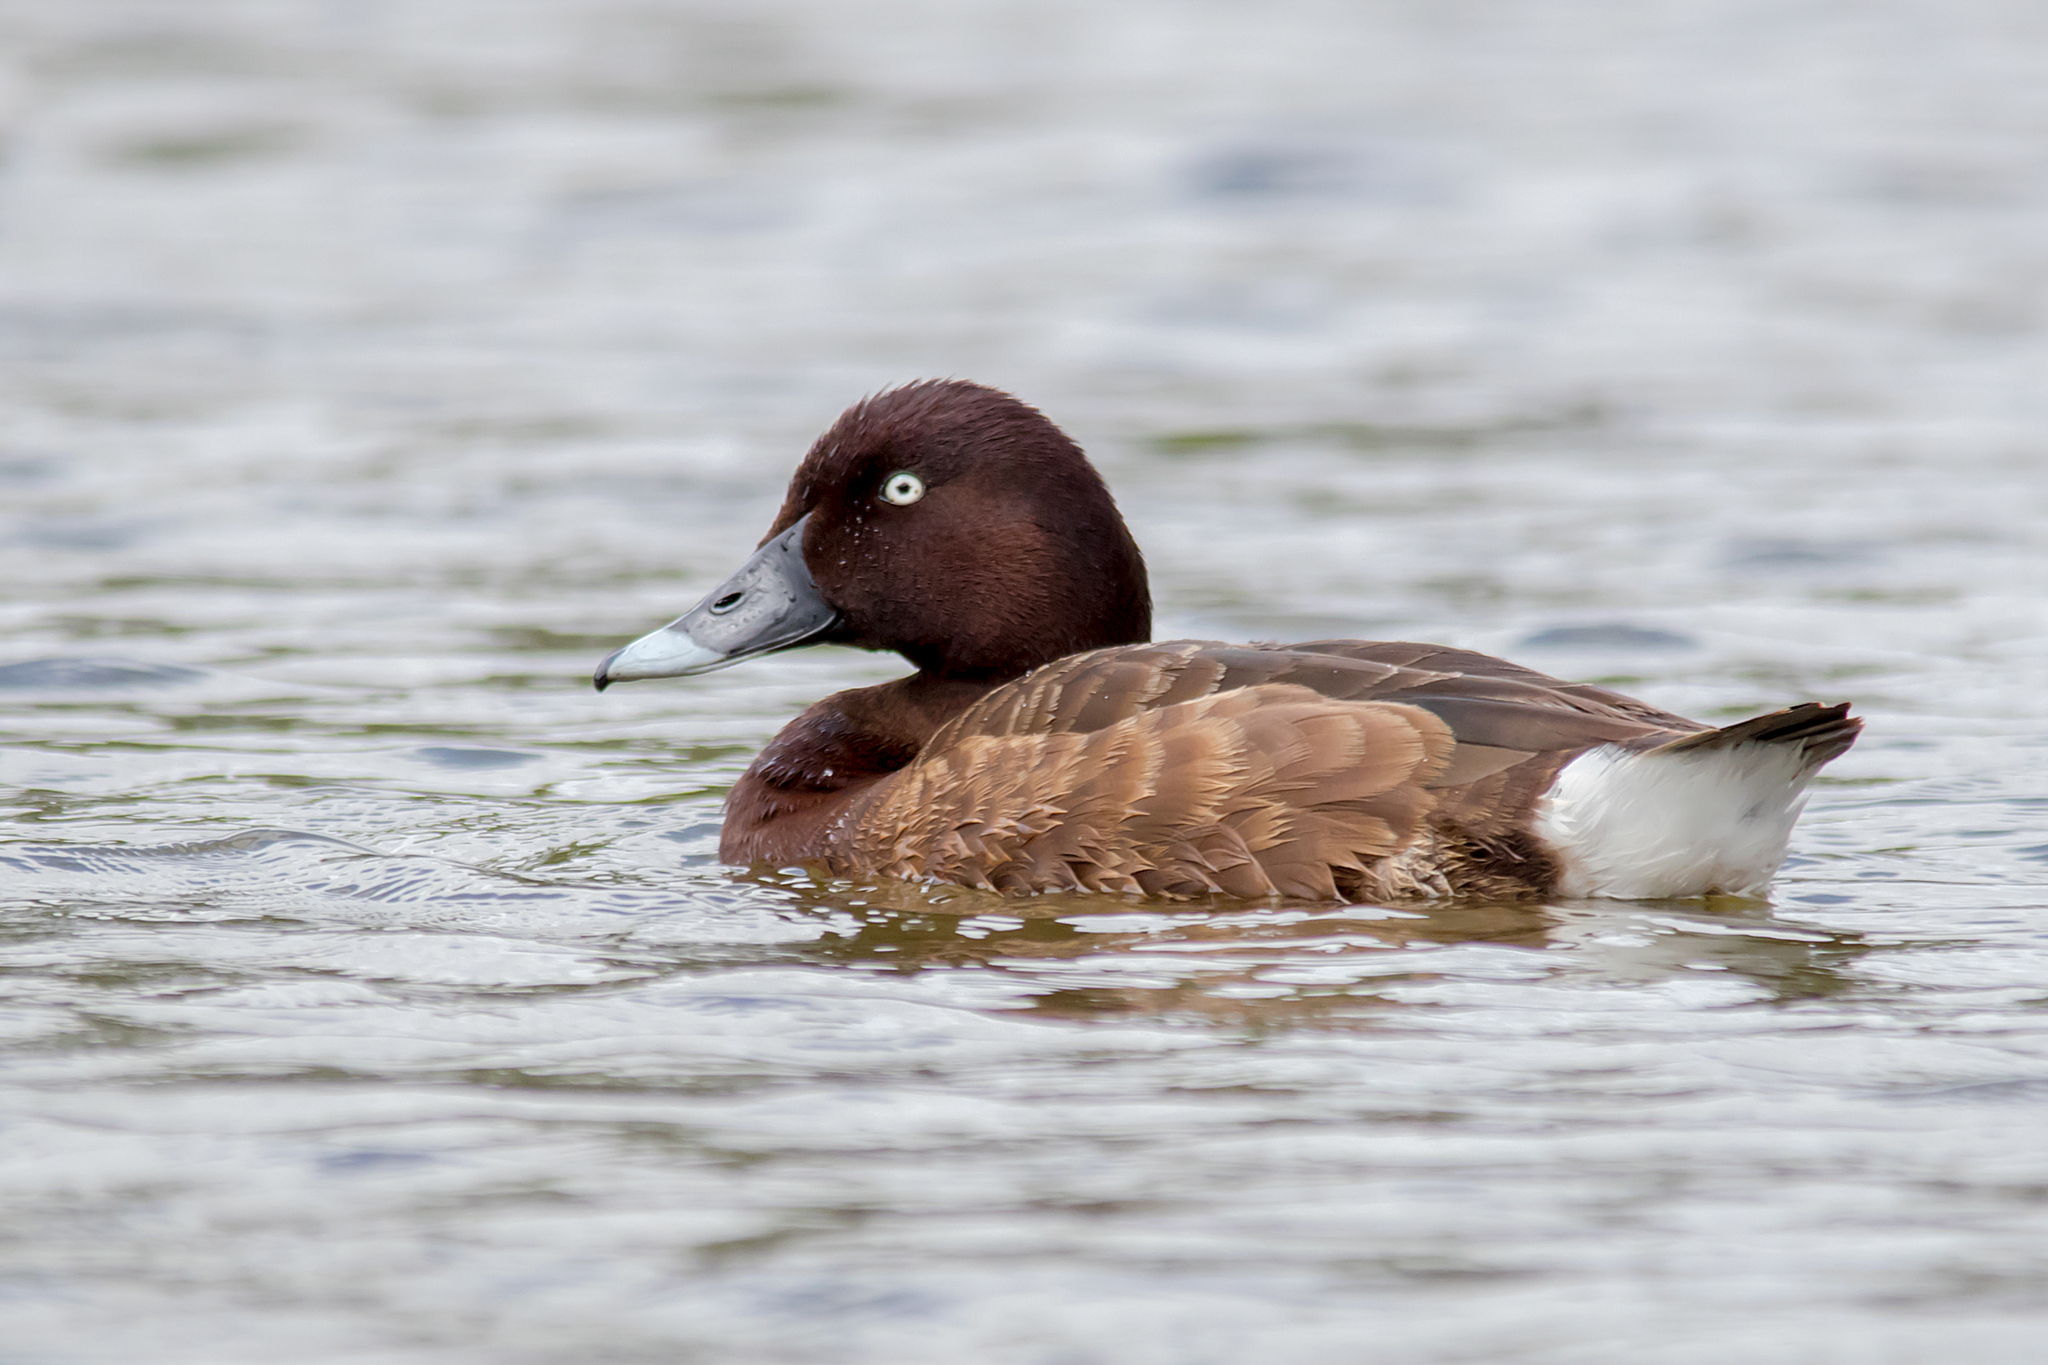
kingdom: Animalia
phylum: Chordata
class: Aves
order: Anseriformes
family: Anatidae
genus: Aythya
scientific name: Aythya australis
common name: Hardhead
